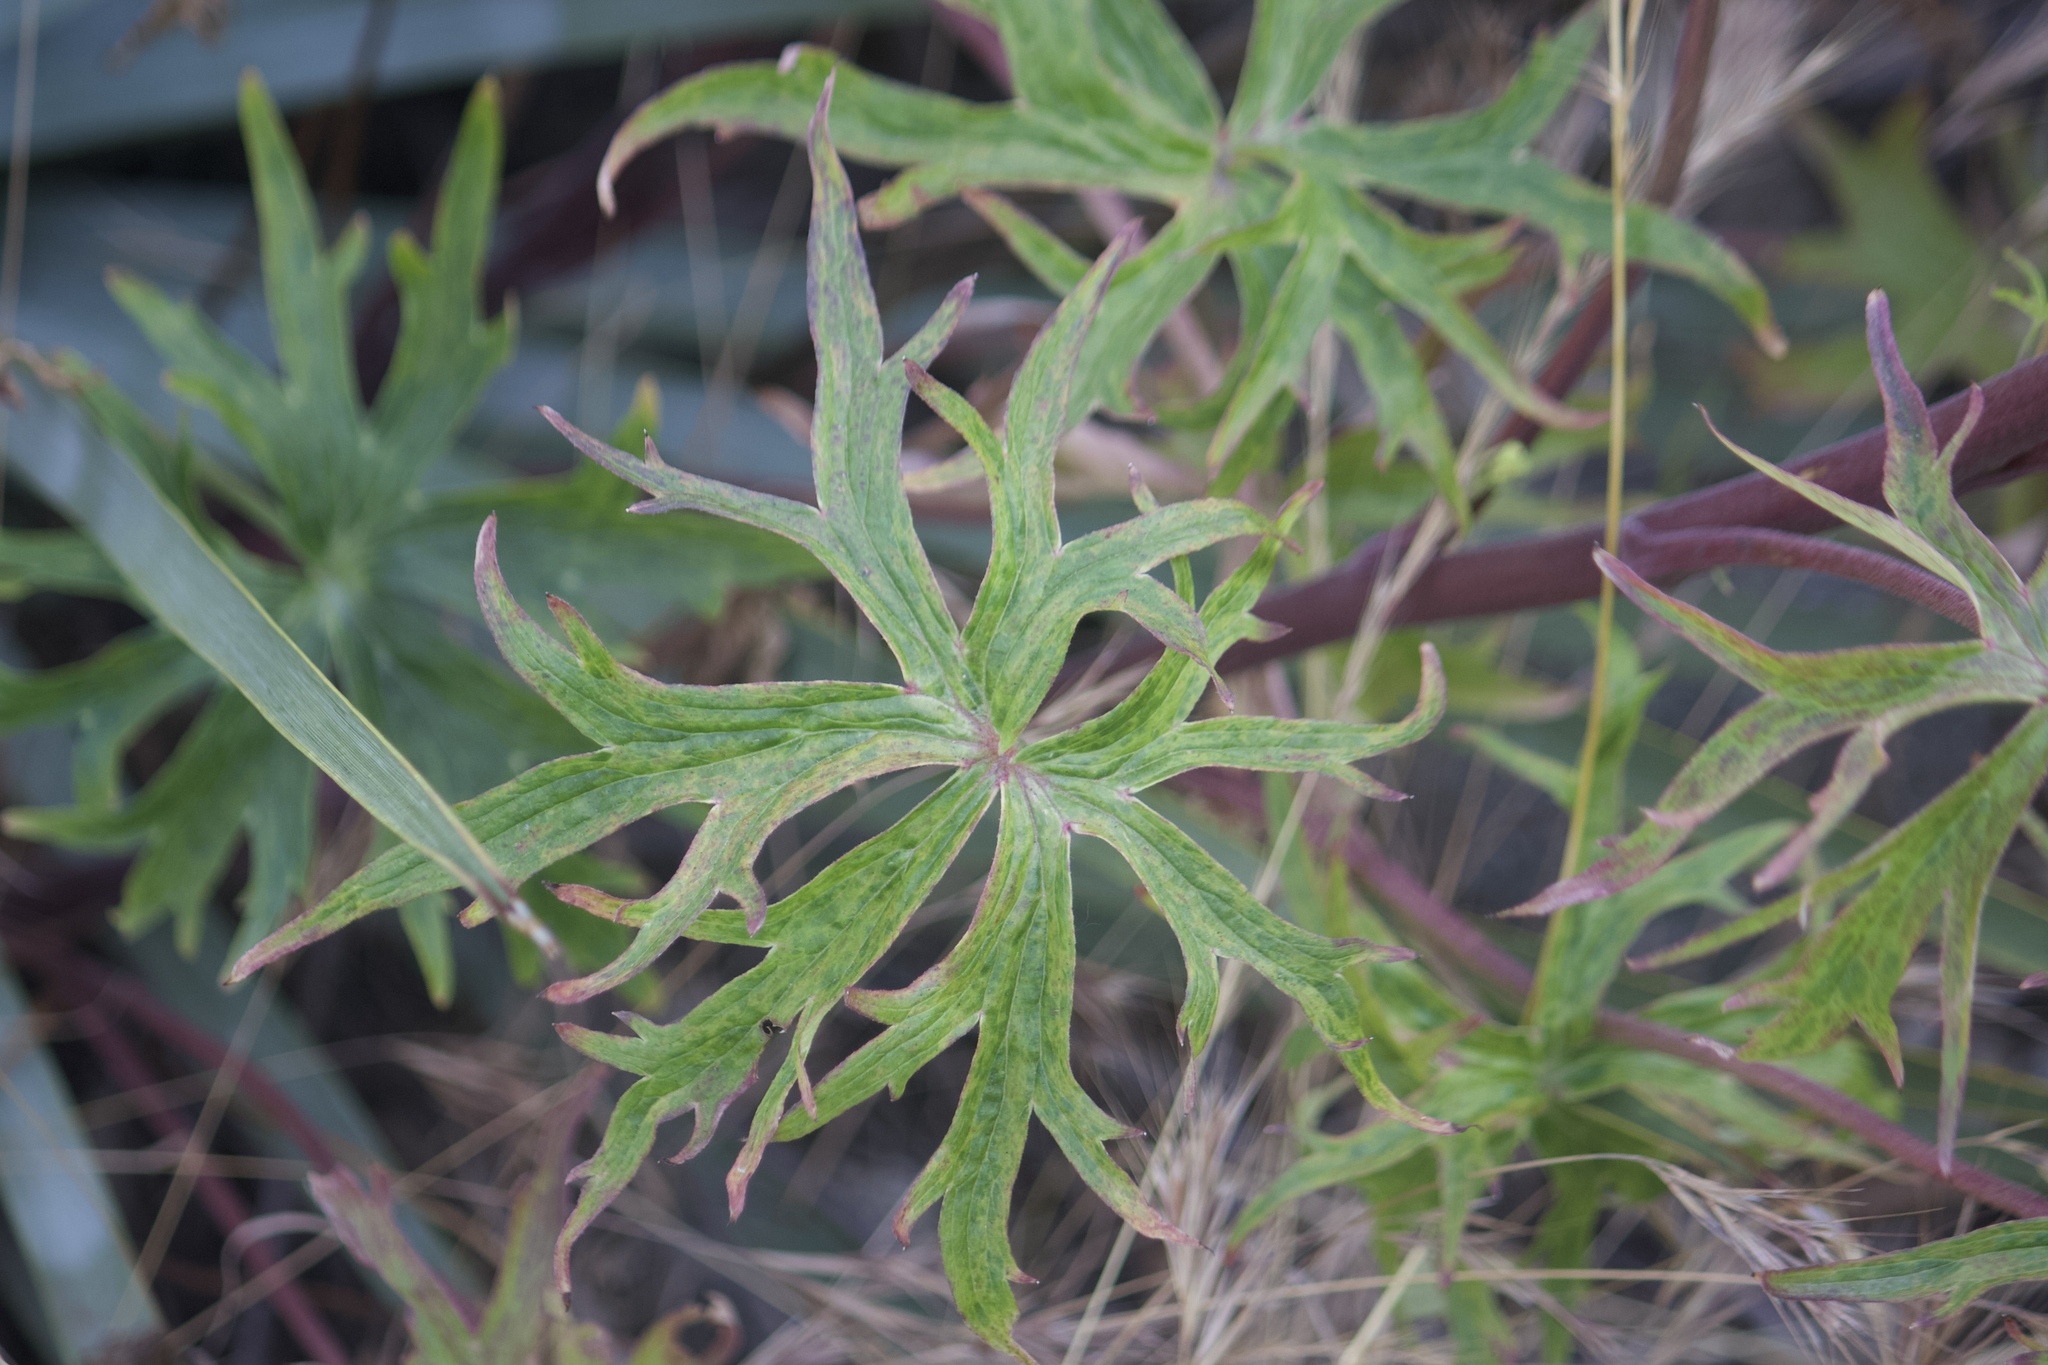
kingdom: Plantae
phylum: Tracheophyta
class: Magnoliopsida
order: Ranunculales
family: Ranunculaceae
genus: Delphinium
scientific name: Delphinium cardinale
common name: Scarlet larkspur
